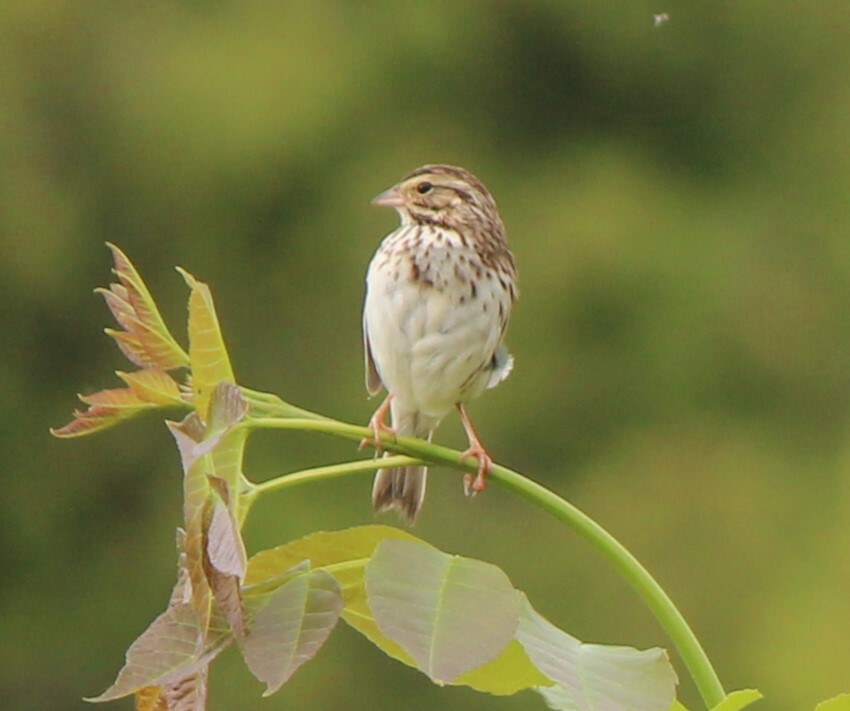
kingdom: Animalia
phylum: Chordata
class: Aves
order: Passeriformes
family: Passerellidae
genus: Passerculus
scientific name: Passerculus sandwichensis
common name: Savannah sparrow
